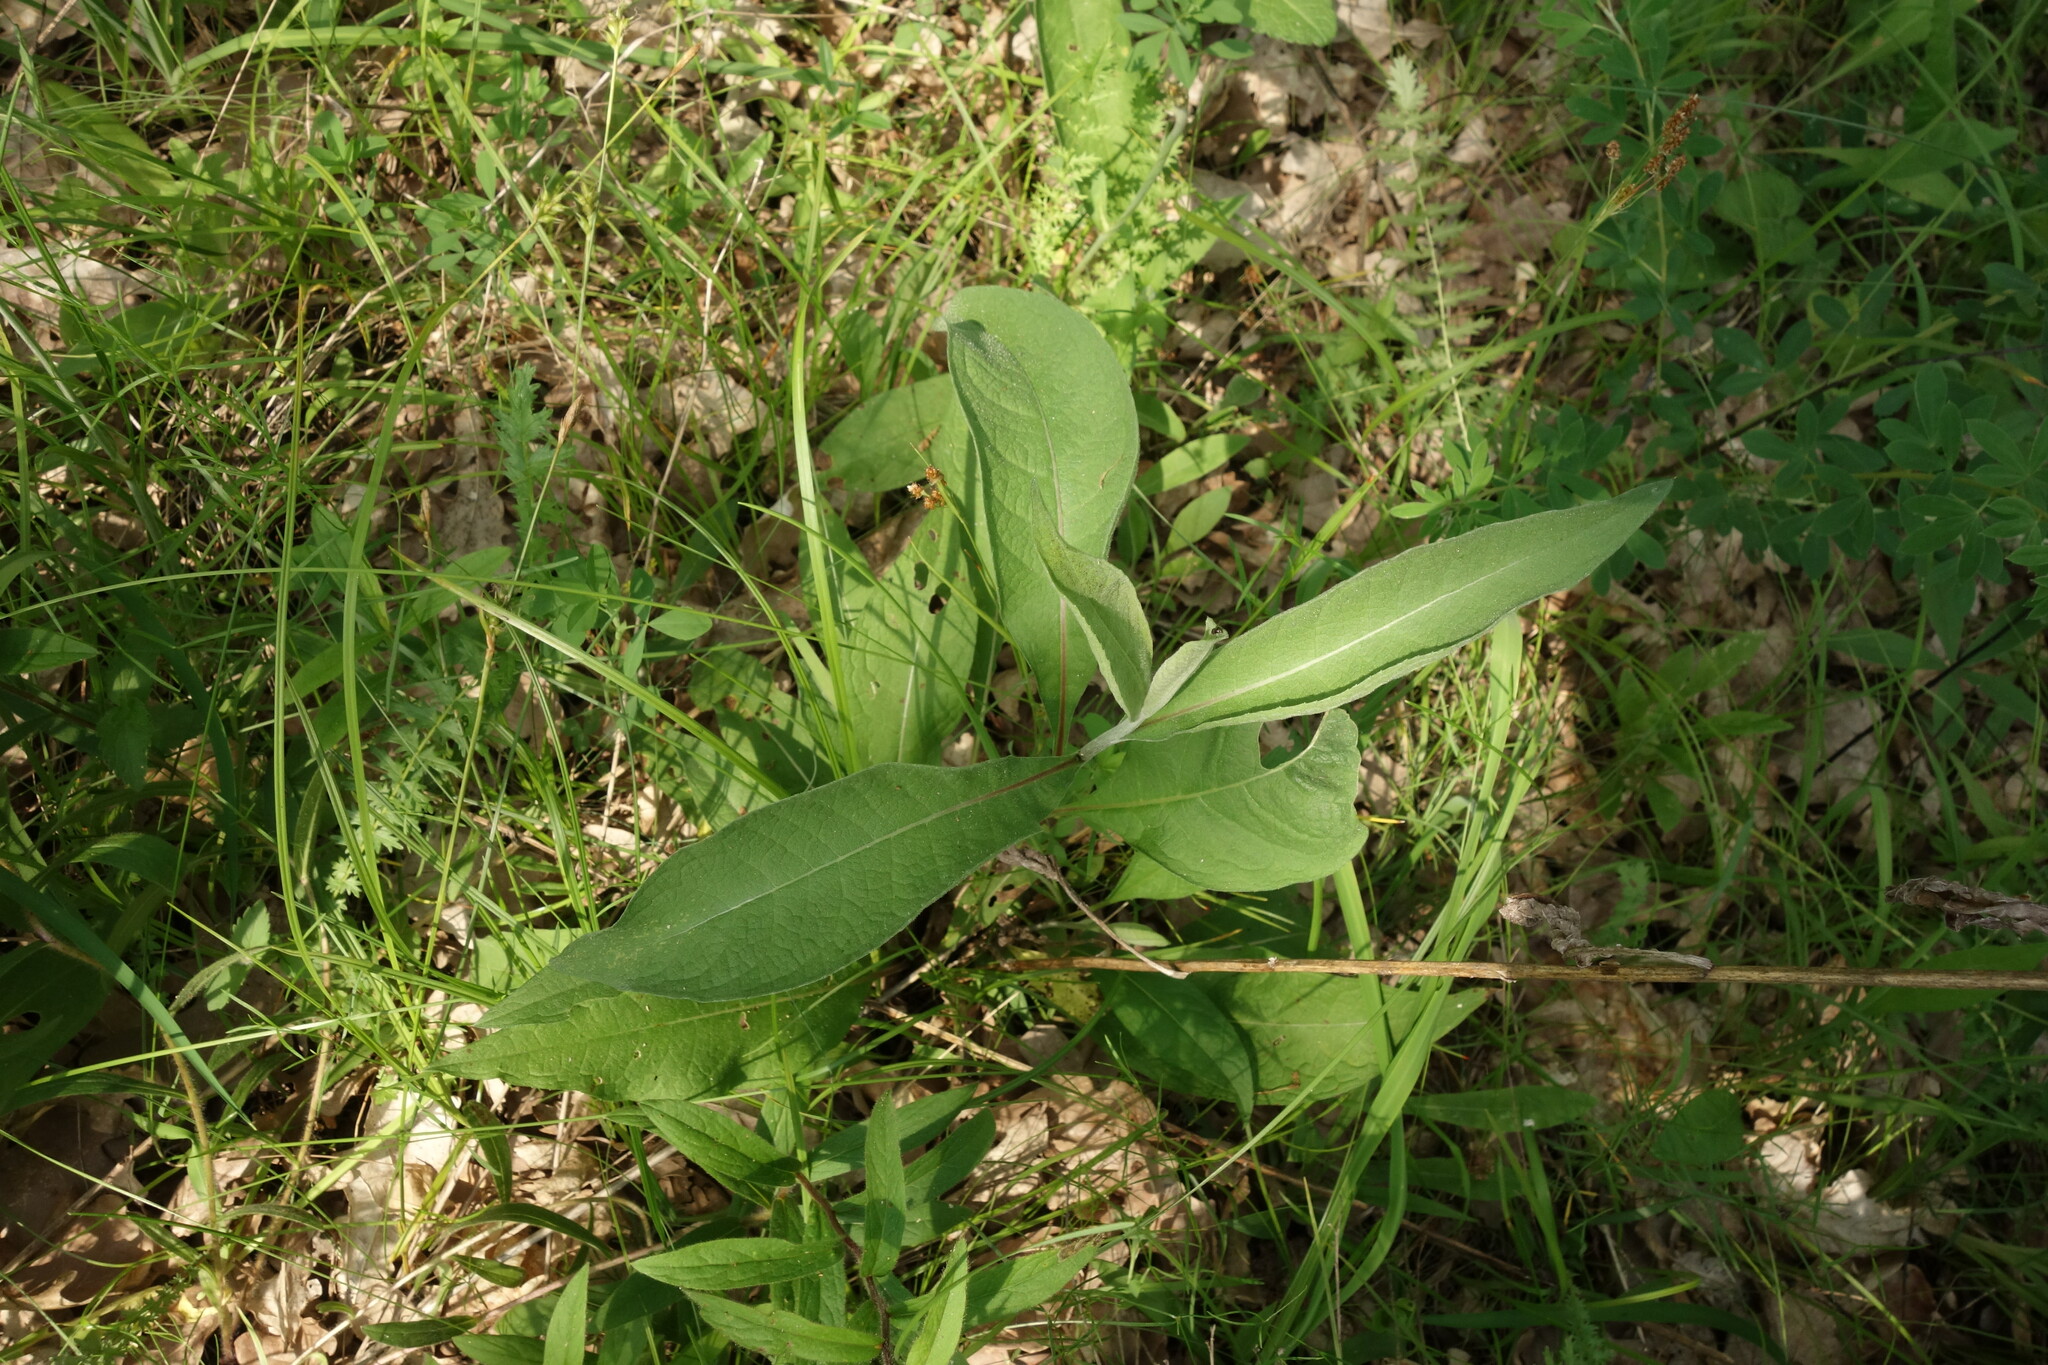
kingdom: Plantae
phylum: Tracheophyta
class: Magnoliopsida
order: Asterales
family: Asteraceae
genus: Centaurea
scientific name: Centaurea pseudophrygia
